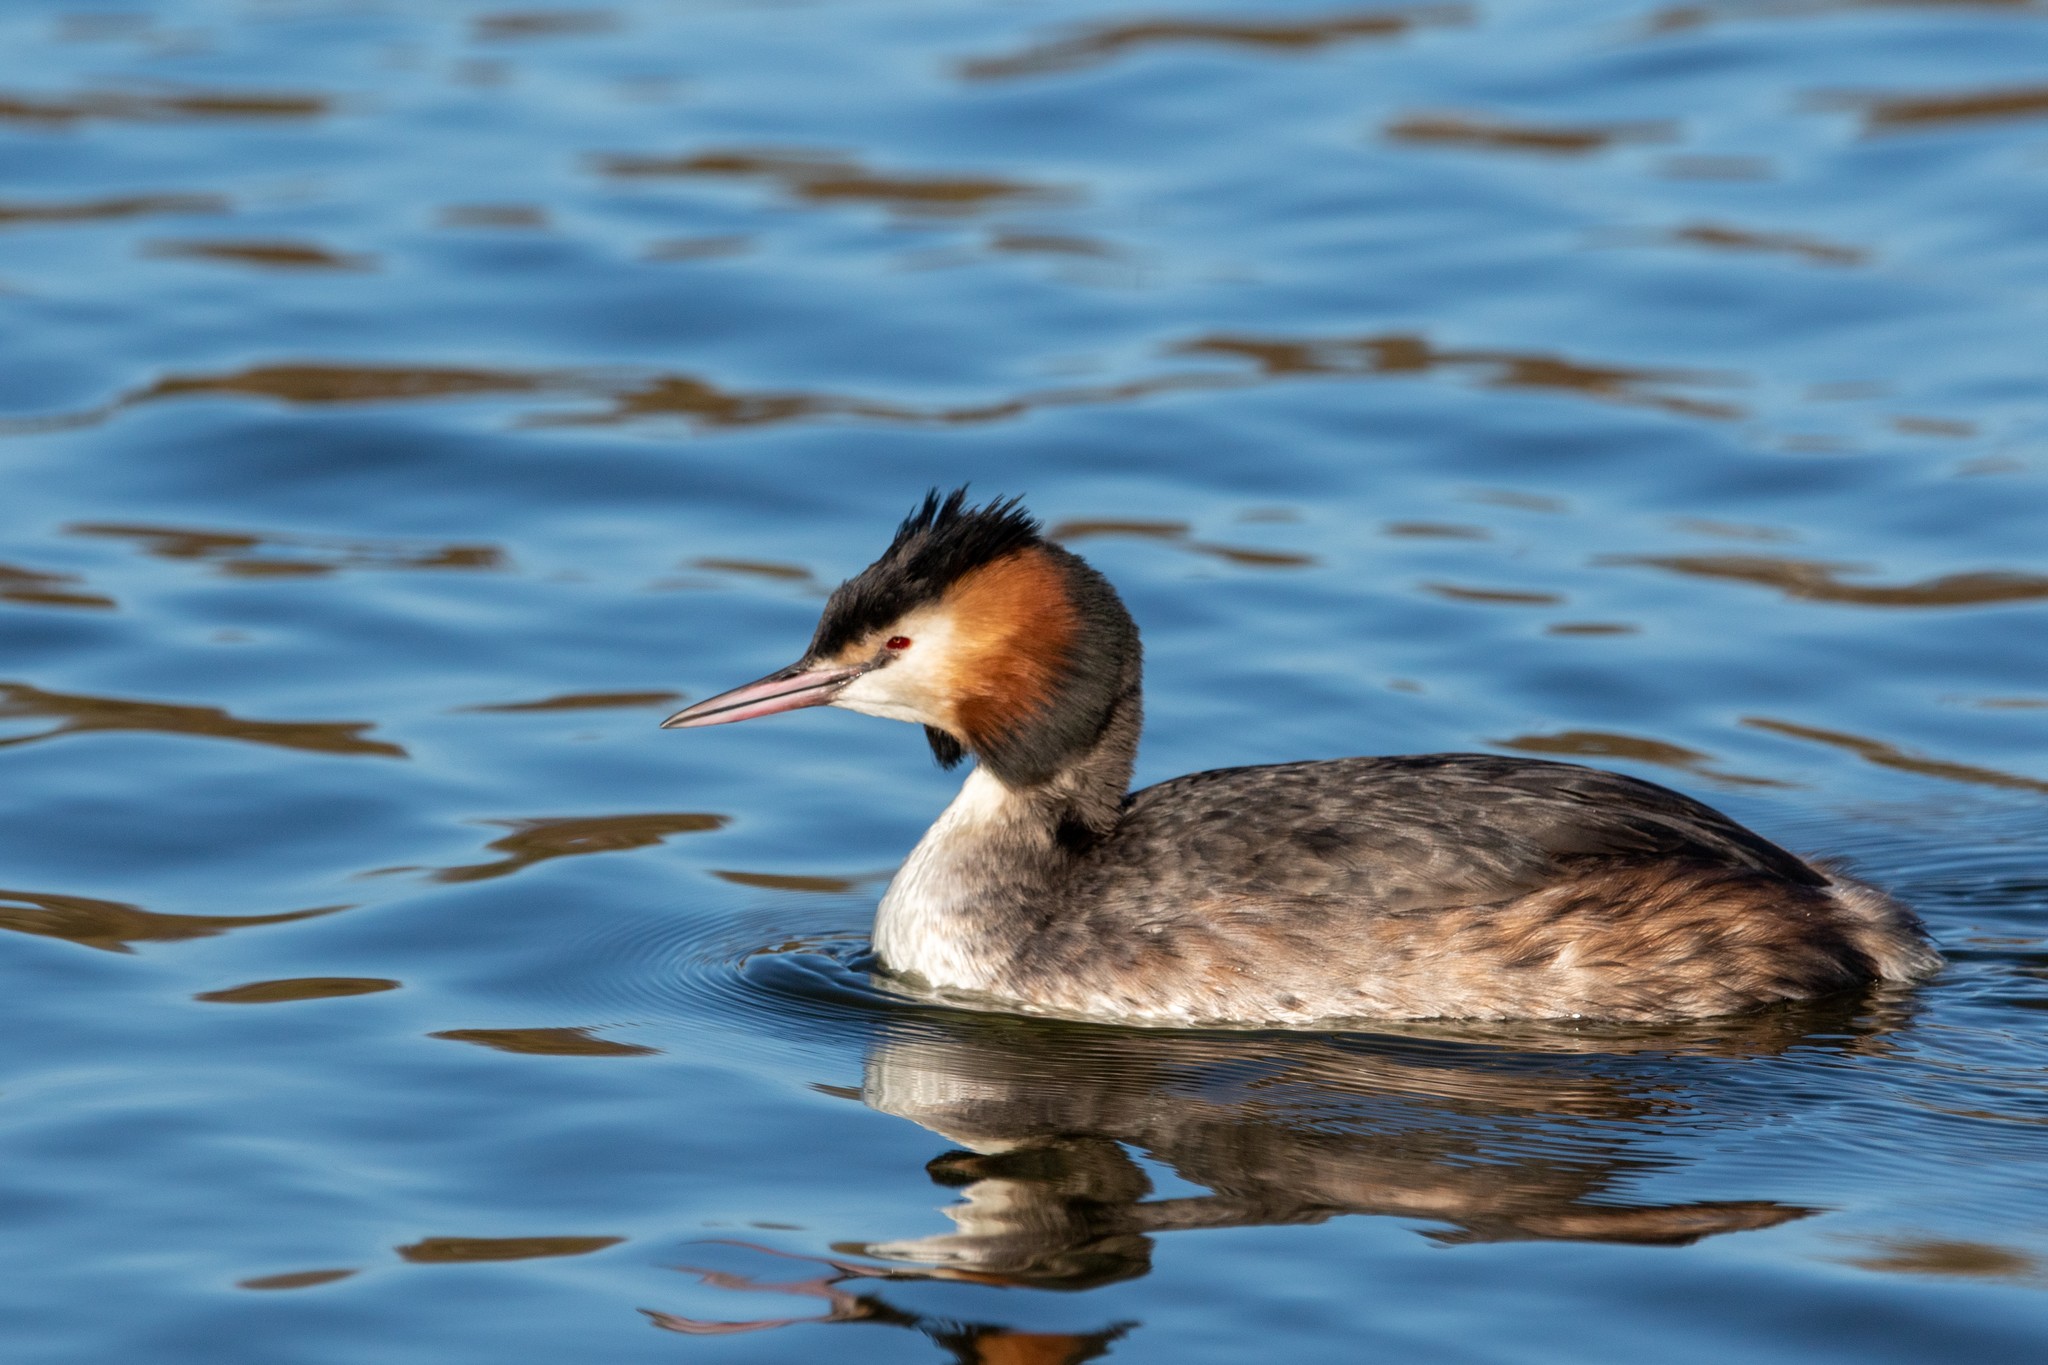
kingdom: Animalia
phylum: Chordata
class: Aves
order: Podicipediformes
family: Podicipedidae
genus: Podiceps
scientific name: Podiceps cristatus
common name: Great crested grebe
